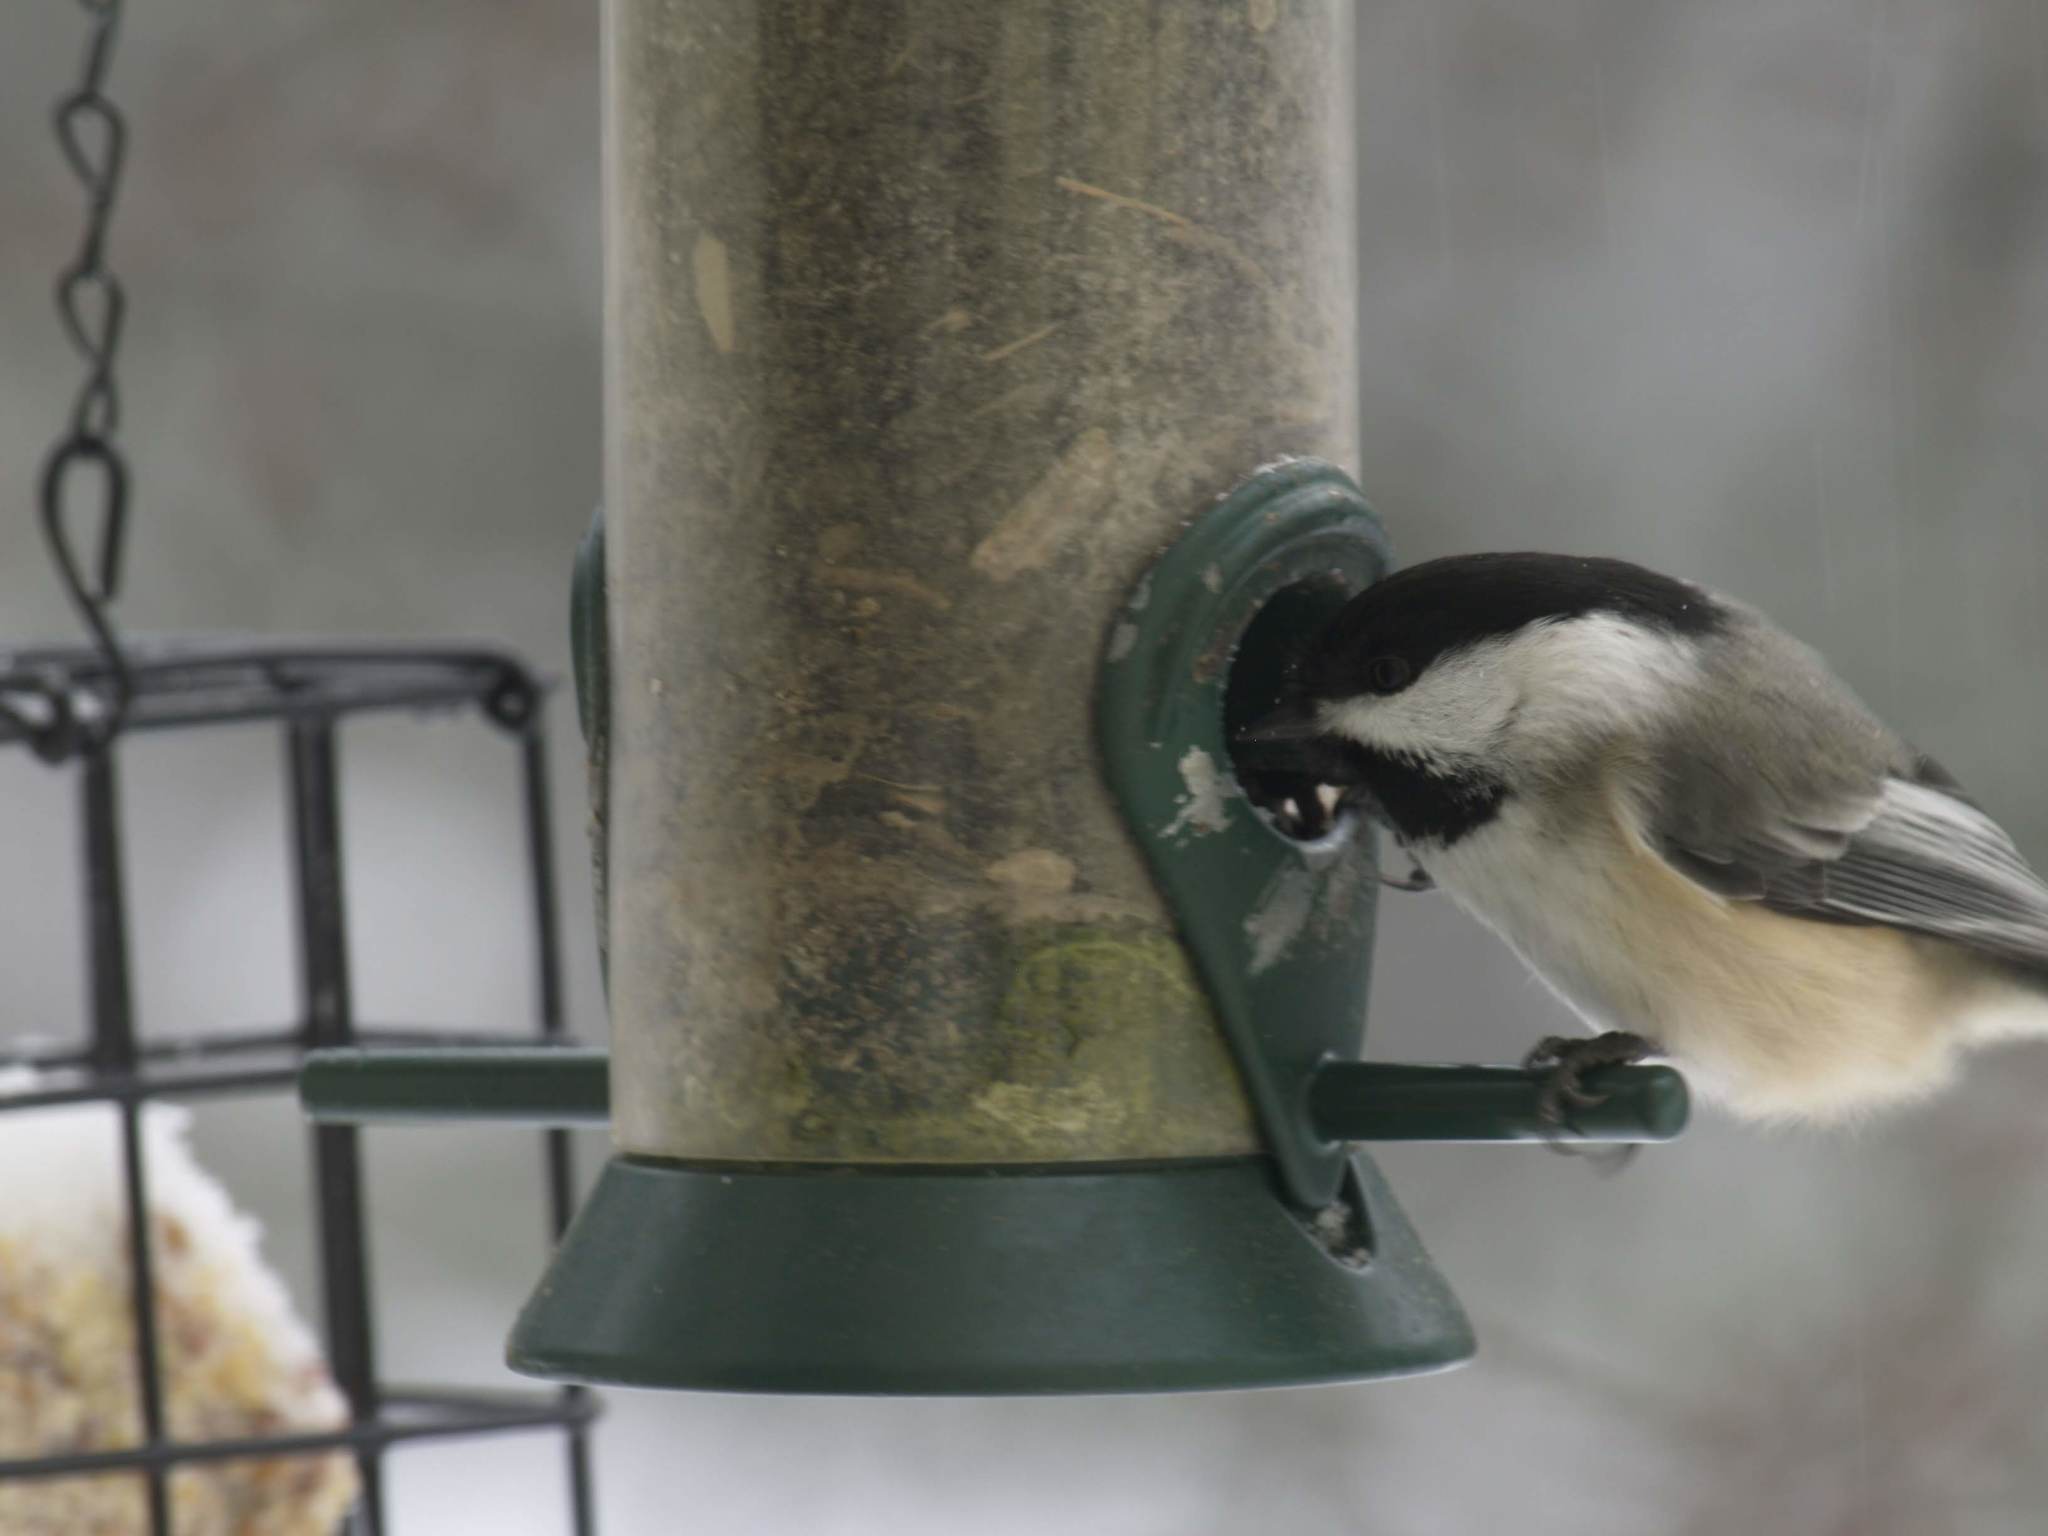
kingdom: Animalia
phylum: Chordata
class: Aves
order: Passeriformes
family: Paridae
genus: Poecile
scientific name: Poecile atricapillus
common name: Black-capped chickadee
